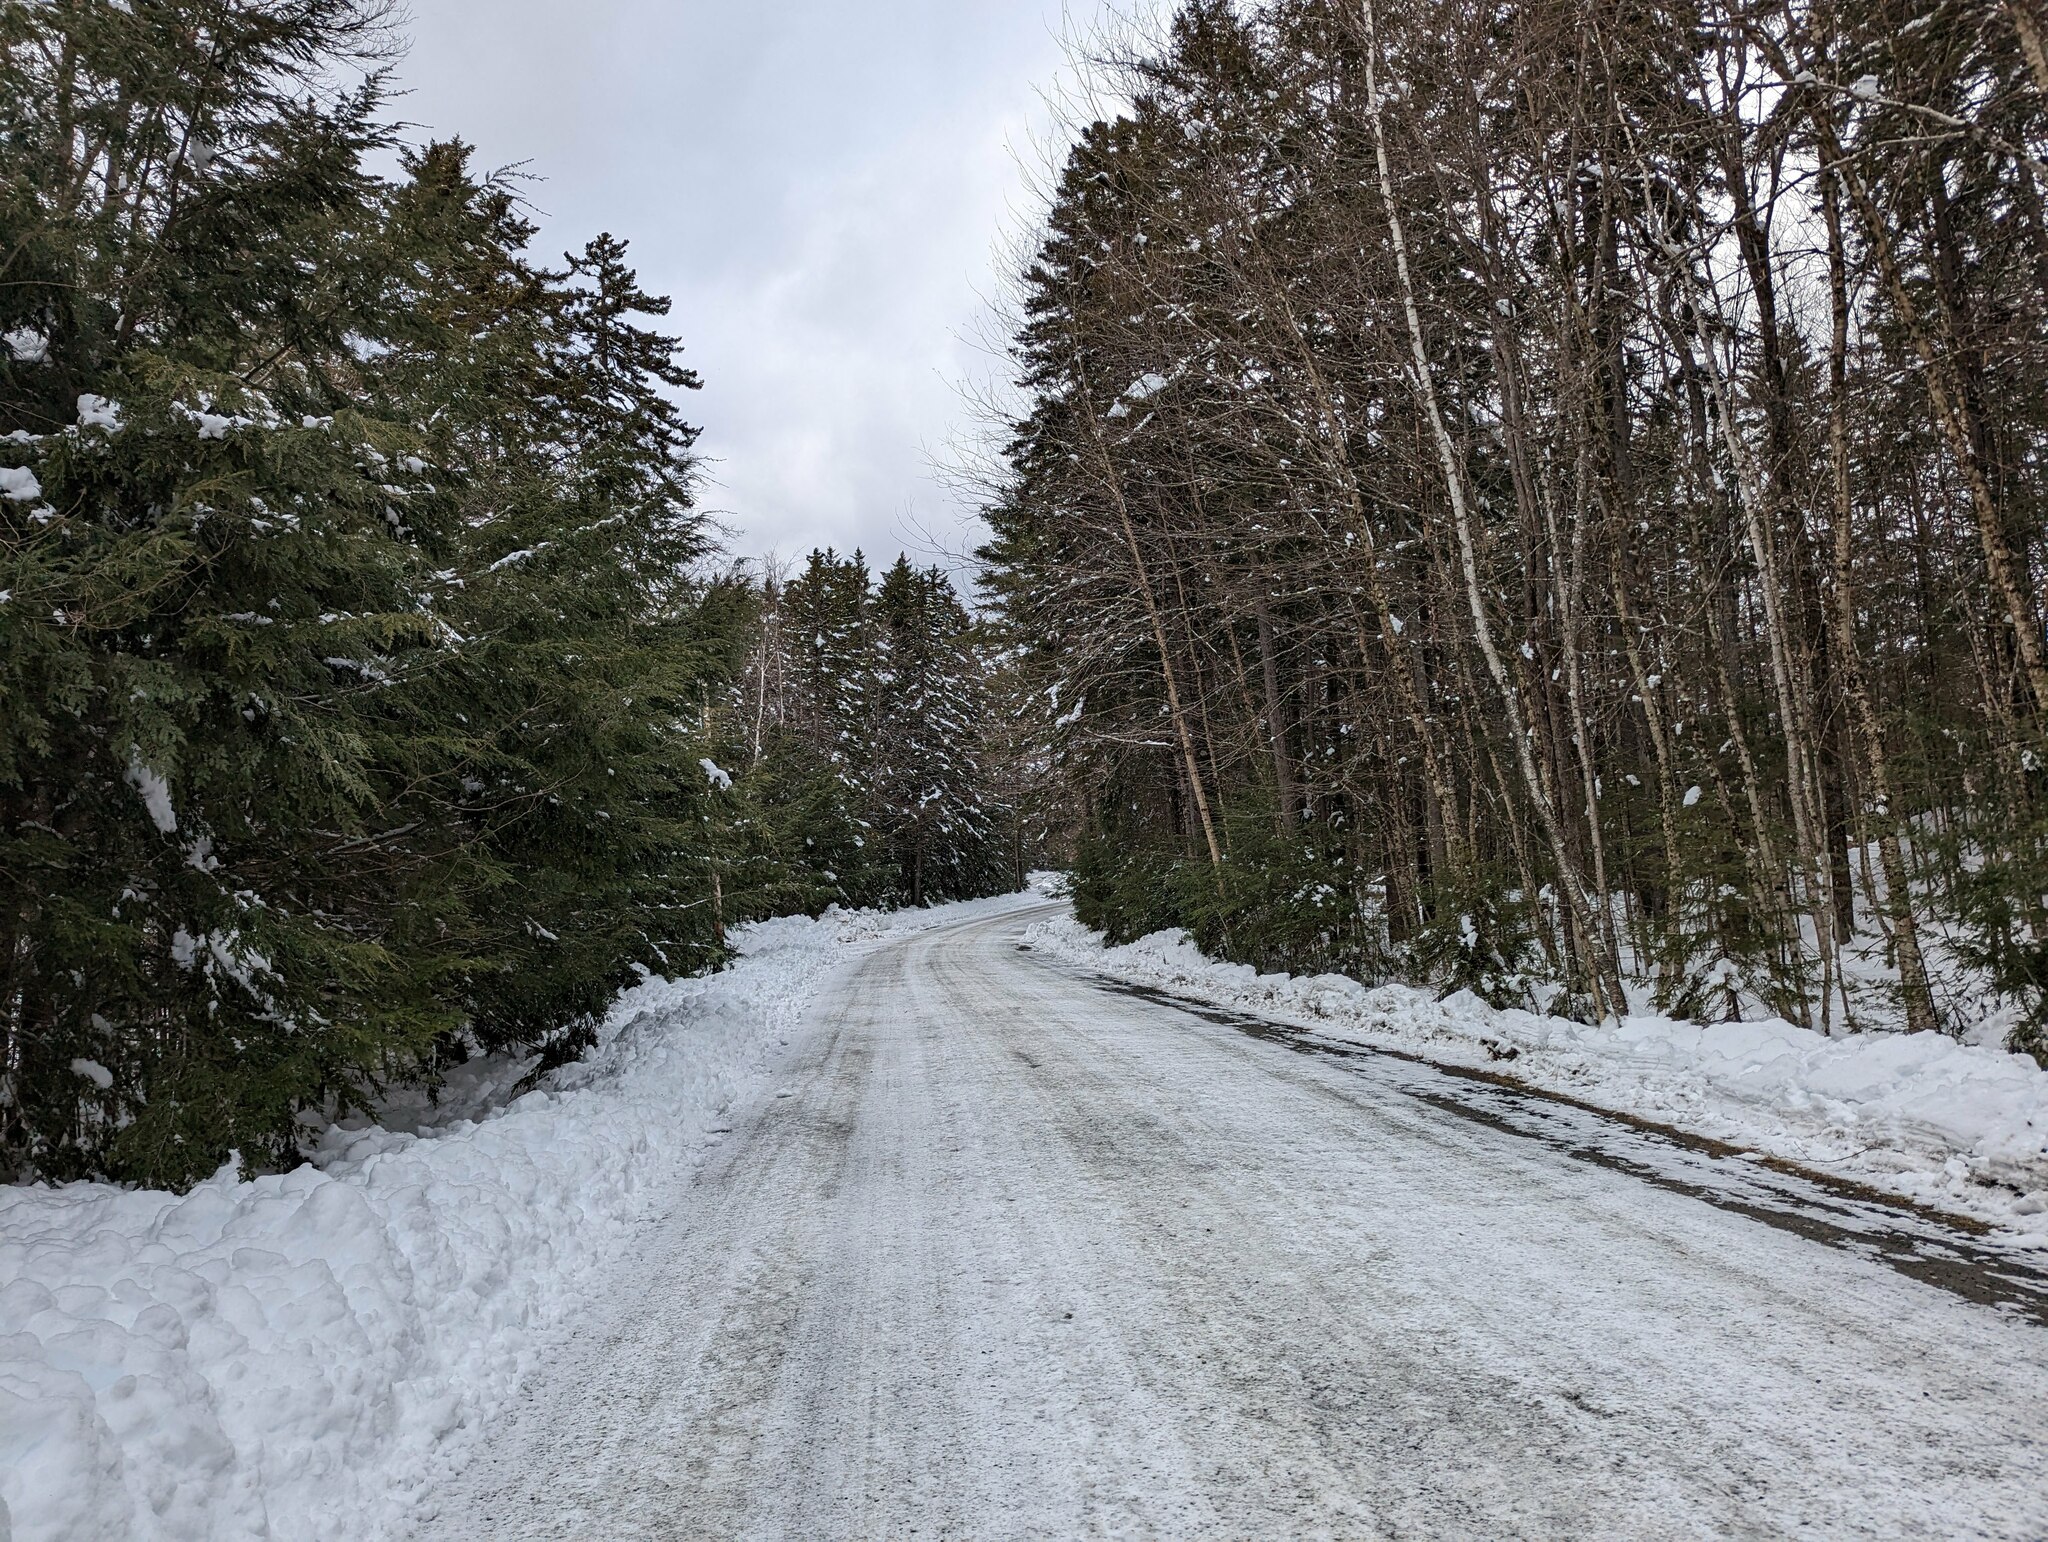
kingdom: Plantae
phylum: Tracheophyta
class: Pinopsida
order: Pinales
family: Pinaceae
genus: Tsuga
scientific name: Tsuga canadensis
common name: Eastern hemlock
